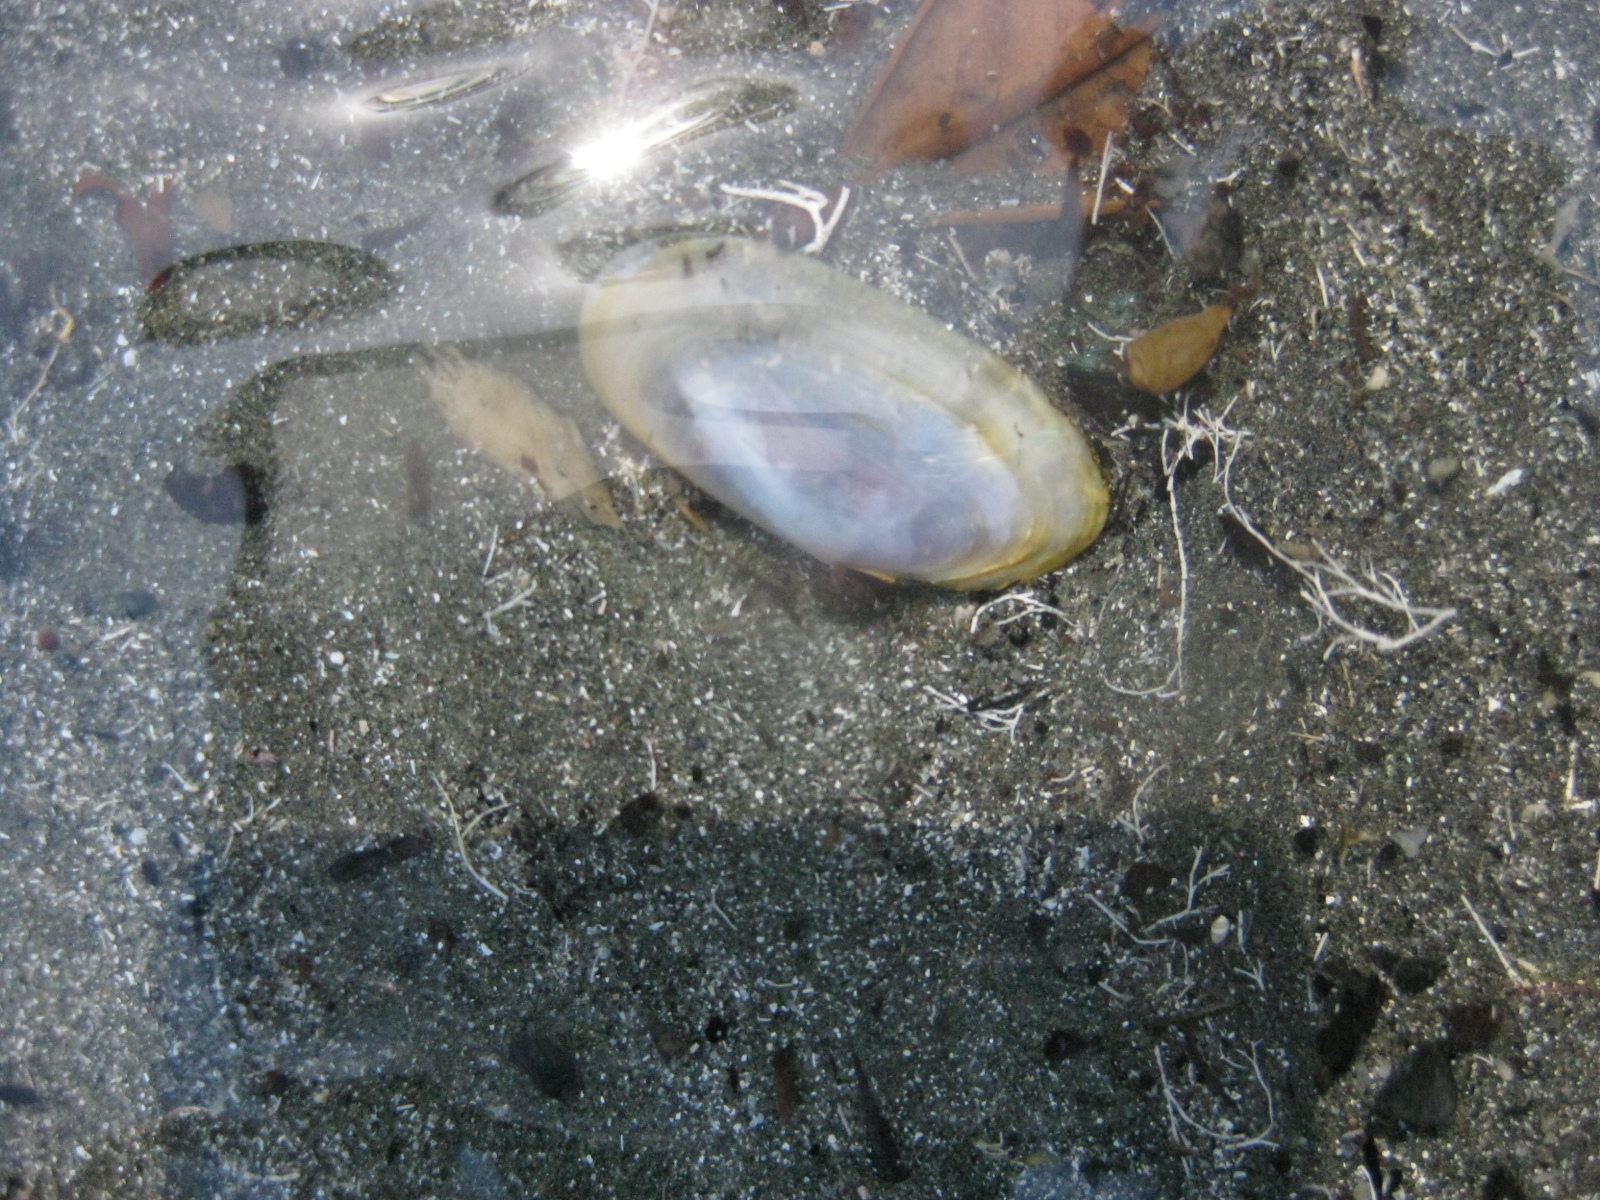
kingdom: Animalia
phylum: Mollusca
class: Bivalvia
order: Cardiida
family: Psammobiidae
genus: Hiatula
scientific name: Hiatula nitida
